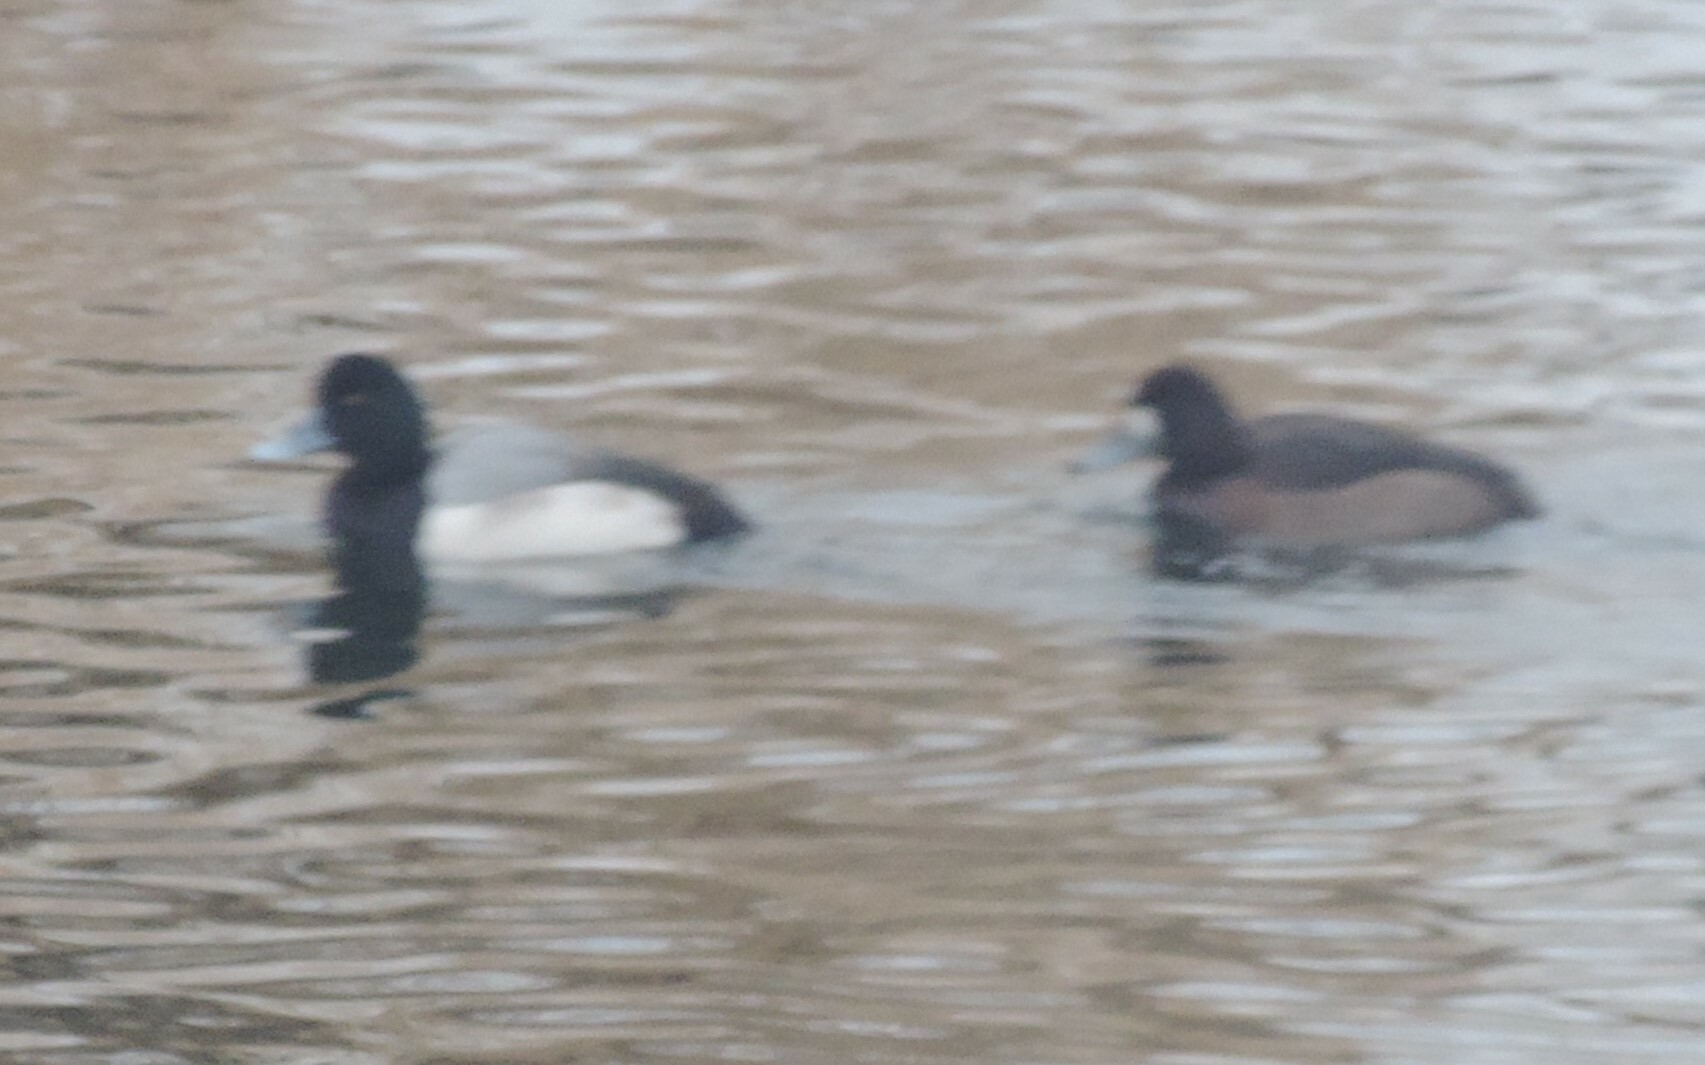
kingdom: Animalia
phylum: Chordata
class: Aves
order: Anseriformes
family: Anatidae
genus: Aythya
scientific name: Aythya marila
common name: Greater scaup
